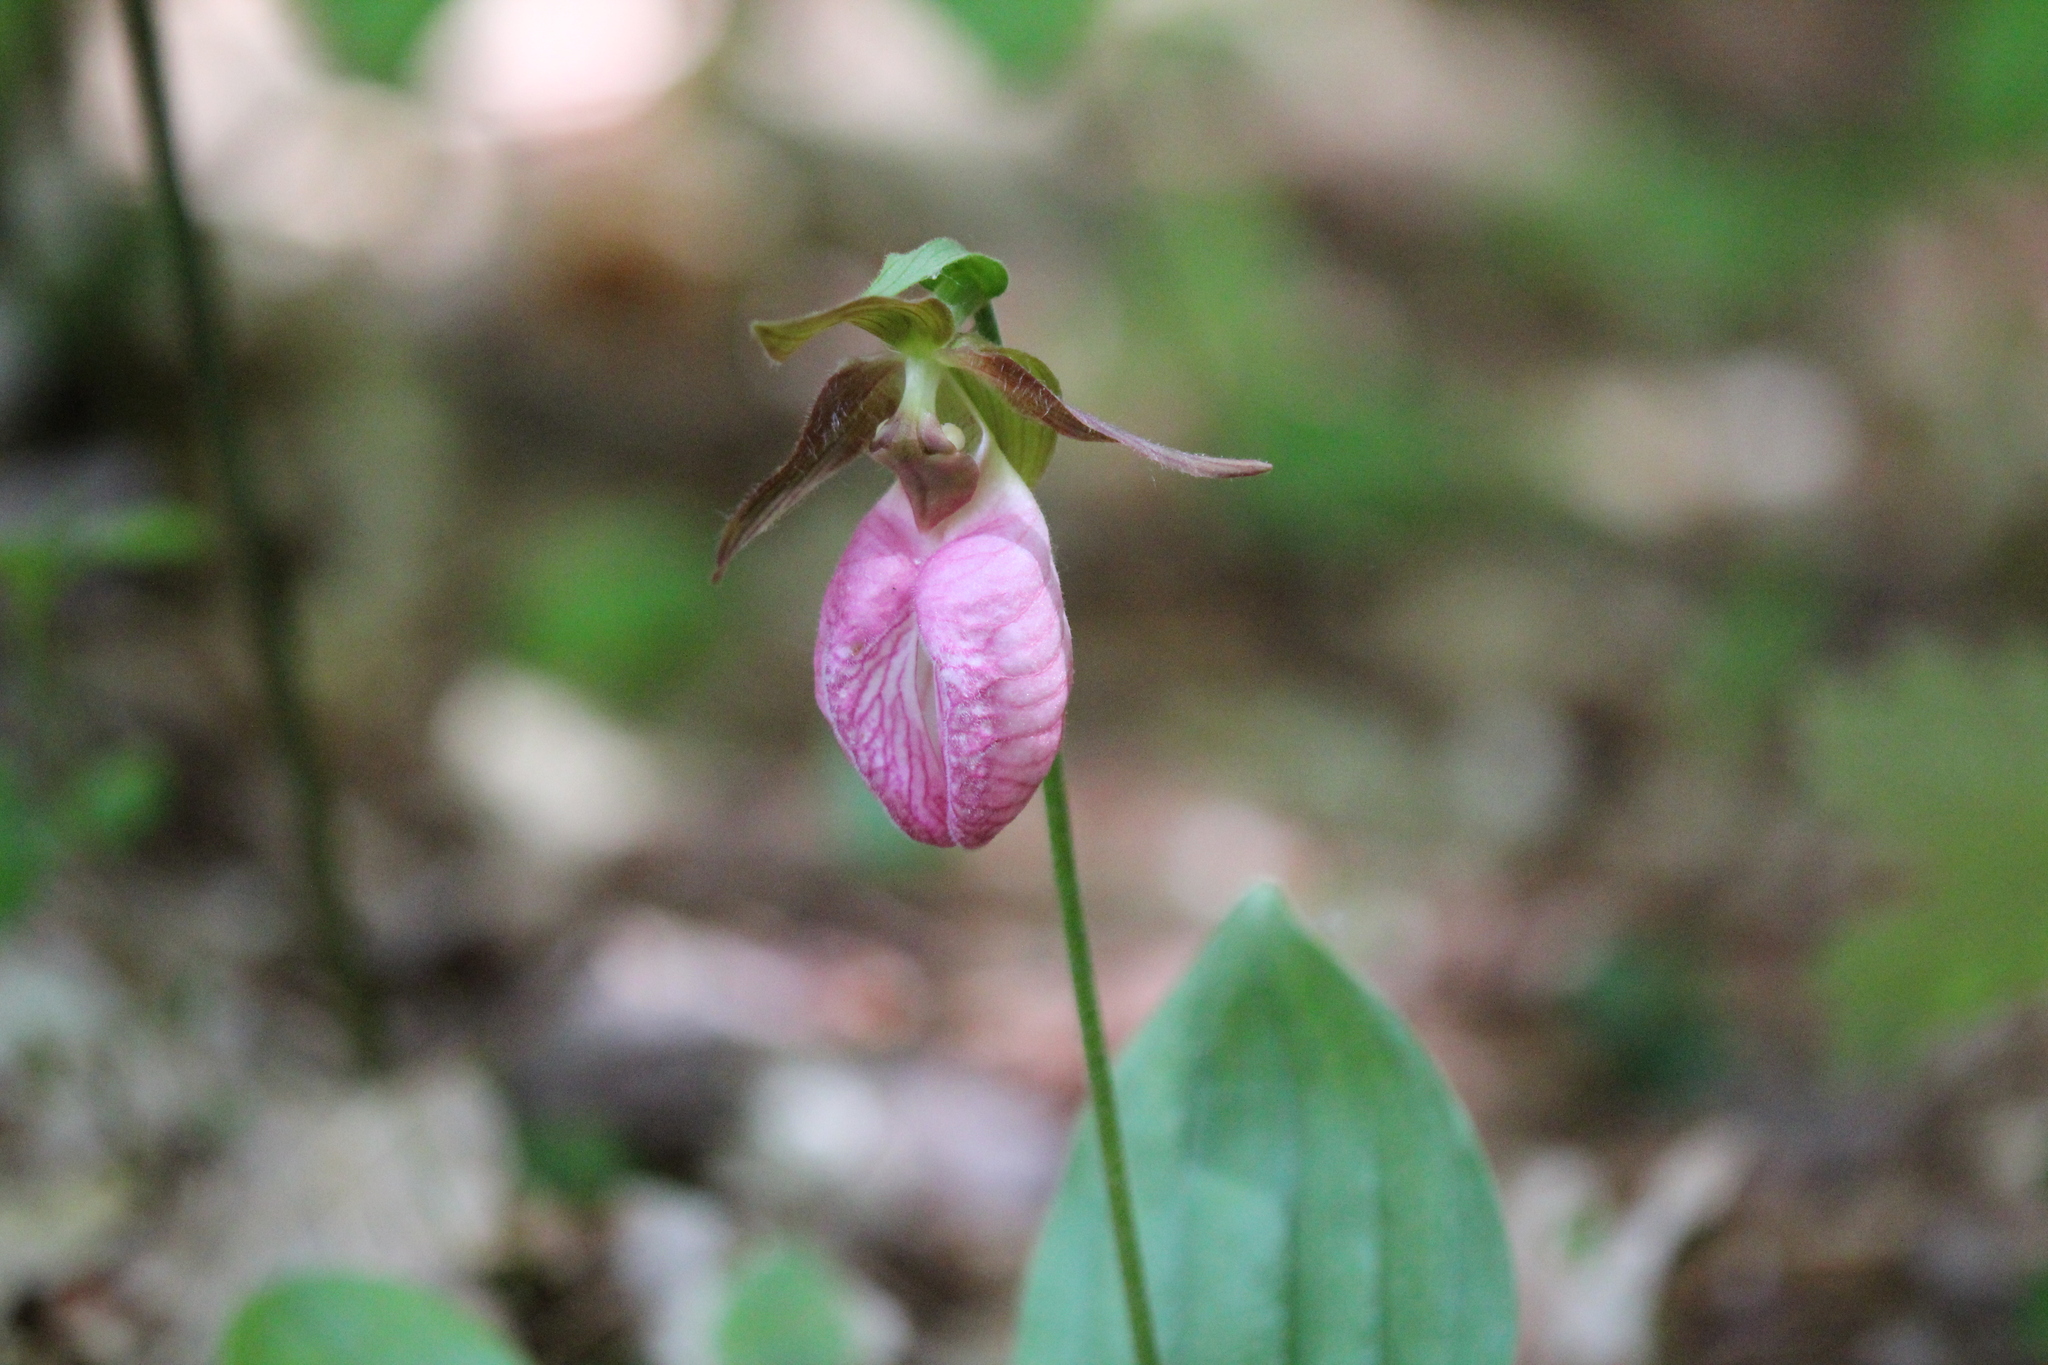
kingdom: Plantae
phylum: Tracheophyta
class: Liliopsida
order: Asparagales
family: Orchidaceae
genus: Cypripedium
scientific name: Cypripedium acaule
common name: Pink lady's-slipper
